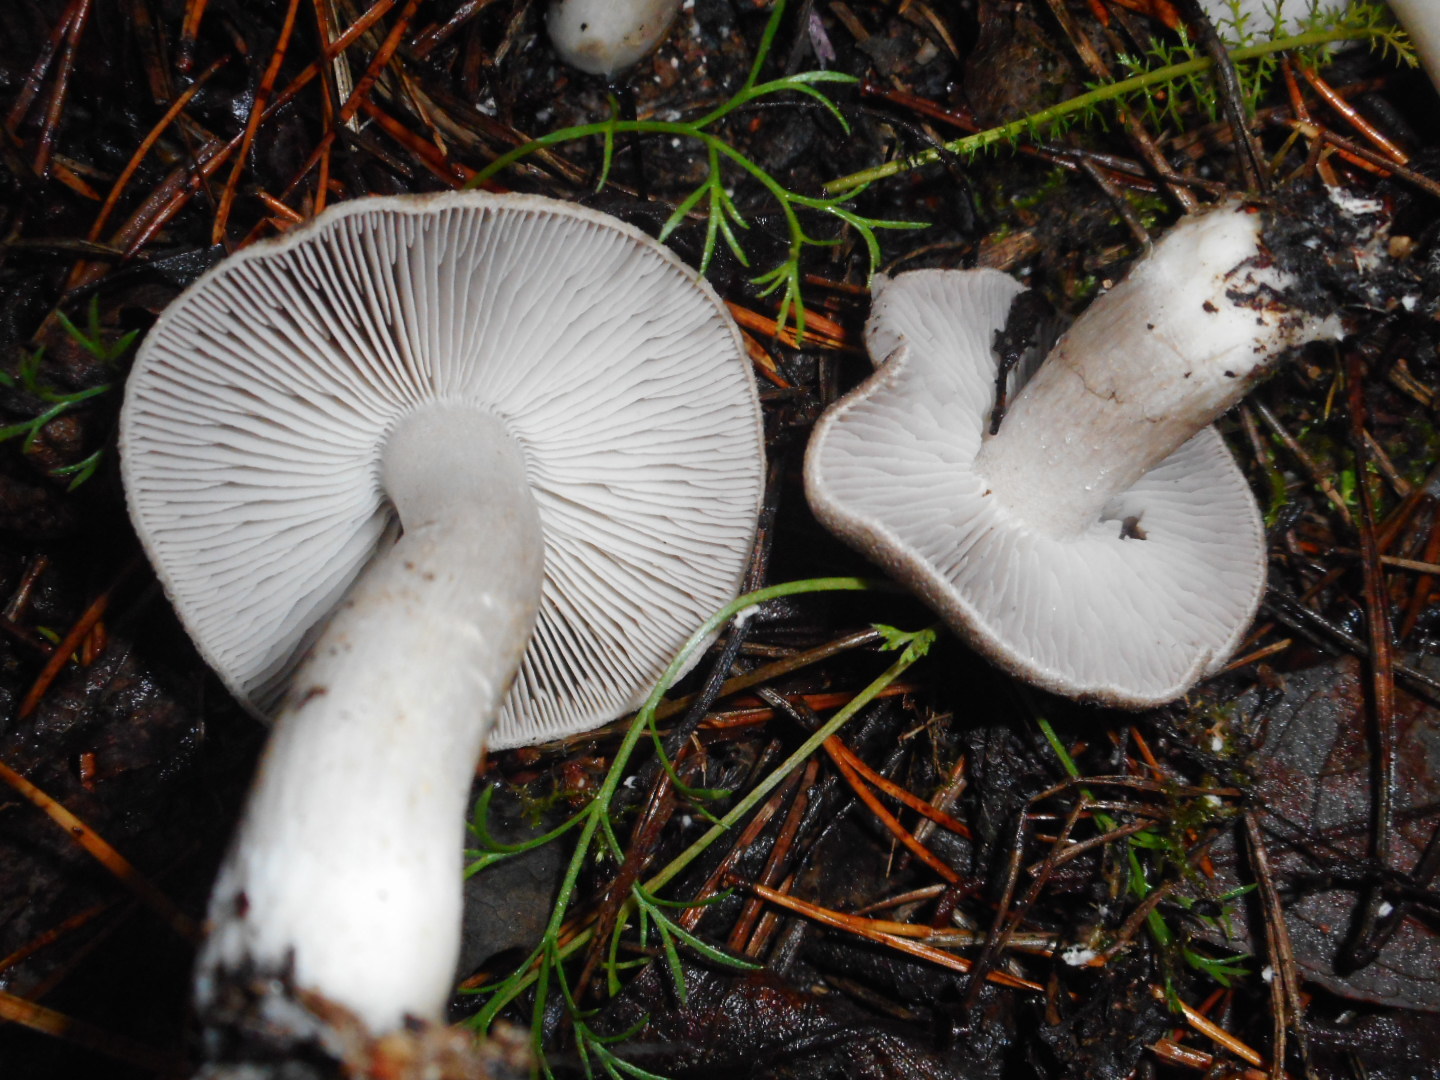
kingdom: Fungi
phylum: Basidiomycota
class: Agaricomycetes
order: Agaricales
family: Tricholomataceae
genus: Tricholoma
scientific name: Tricholoma terreum
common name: Grey knight
